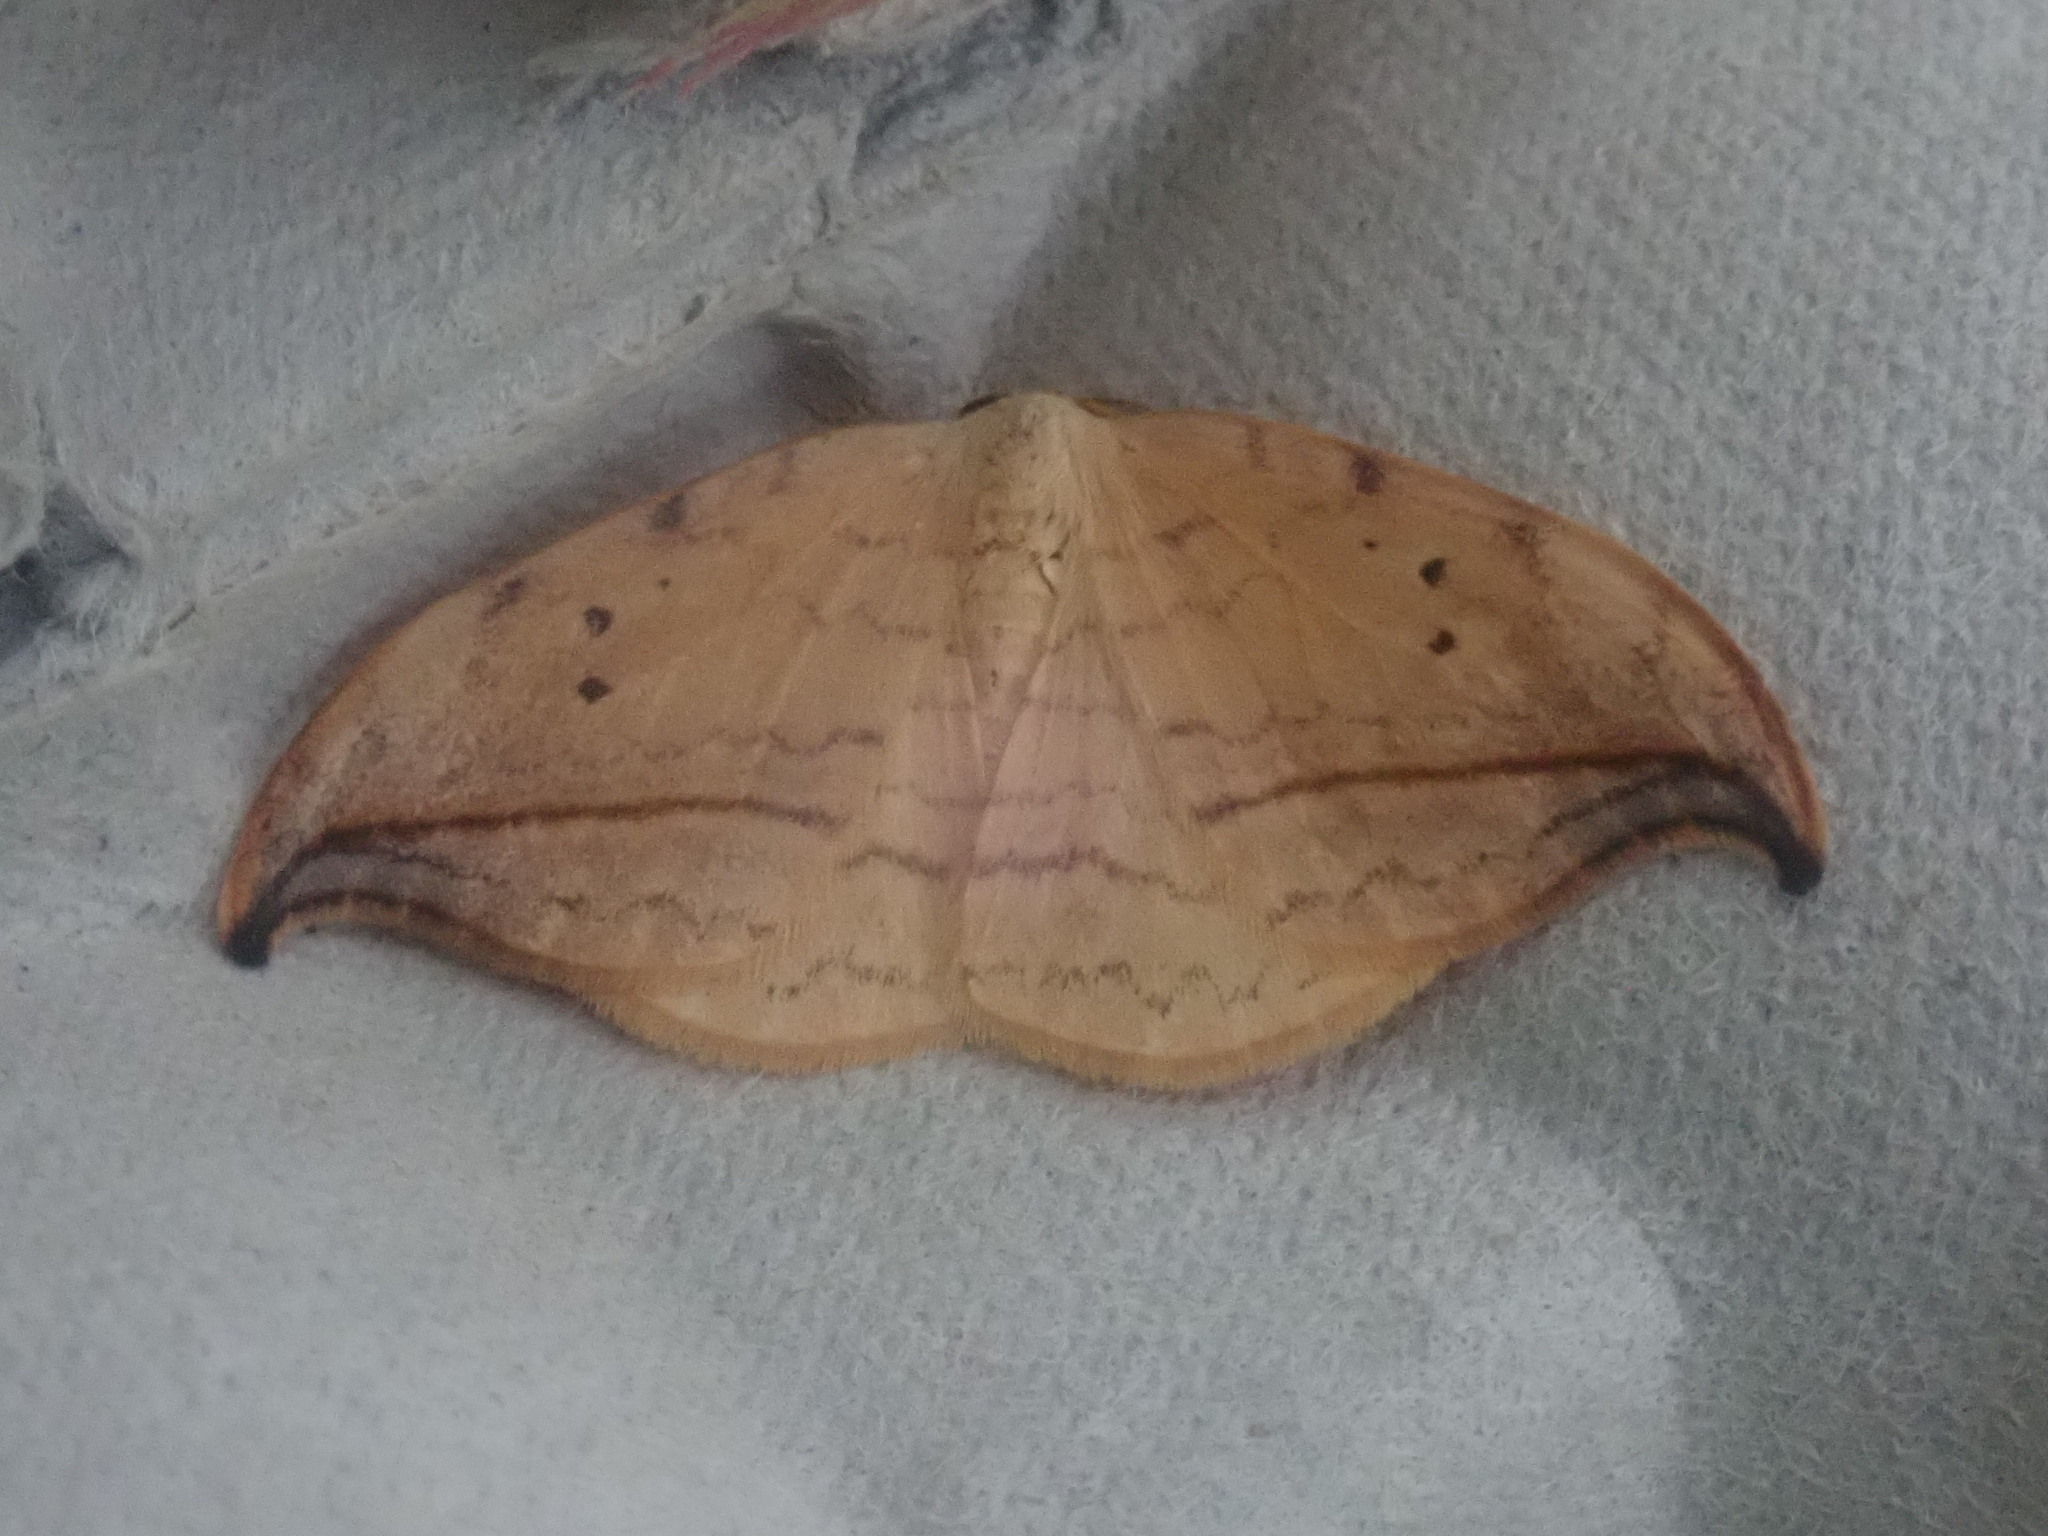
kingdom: Animalia
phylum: Arthropoda
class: Insecta
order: Lepidoptera
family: Drepanidae
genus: Drepana
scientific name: Drepana arcuata
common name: Arched hooktip moth
